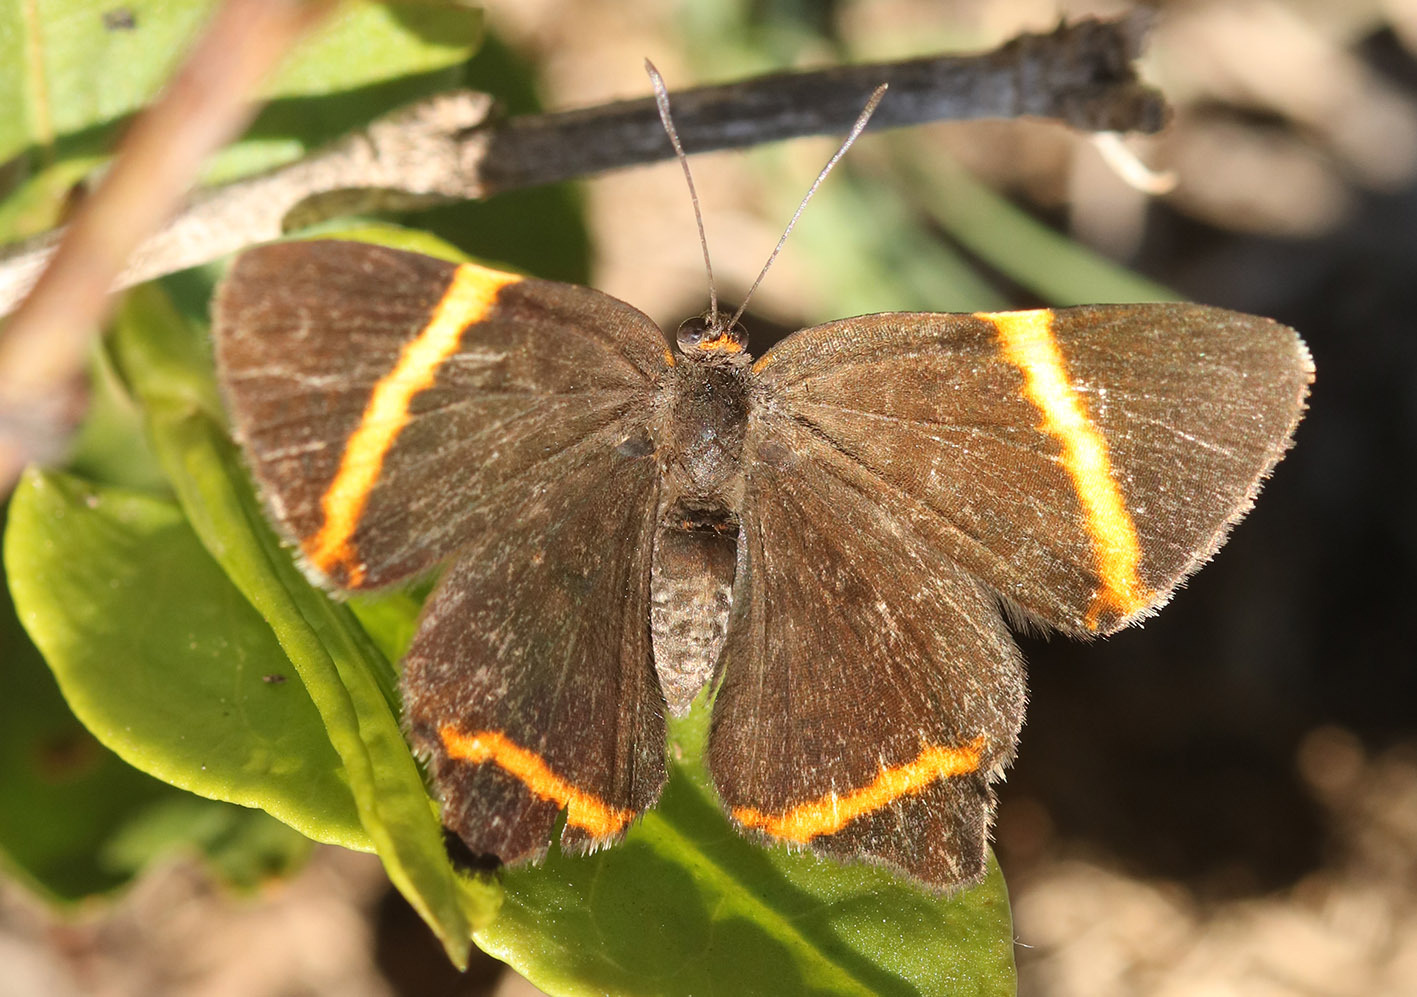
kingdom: Animalia
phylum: Arthropoda
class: Insecta
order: Lepidoptera
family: Riodinidae
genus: Riodina
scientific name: Riodina lysippoides
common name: Little dancer metalmark
